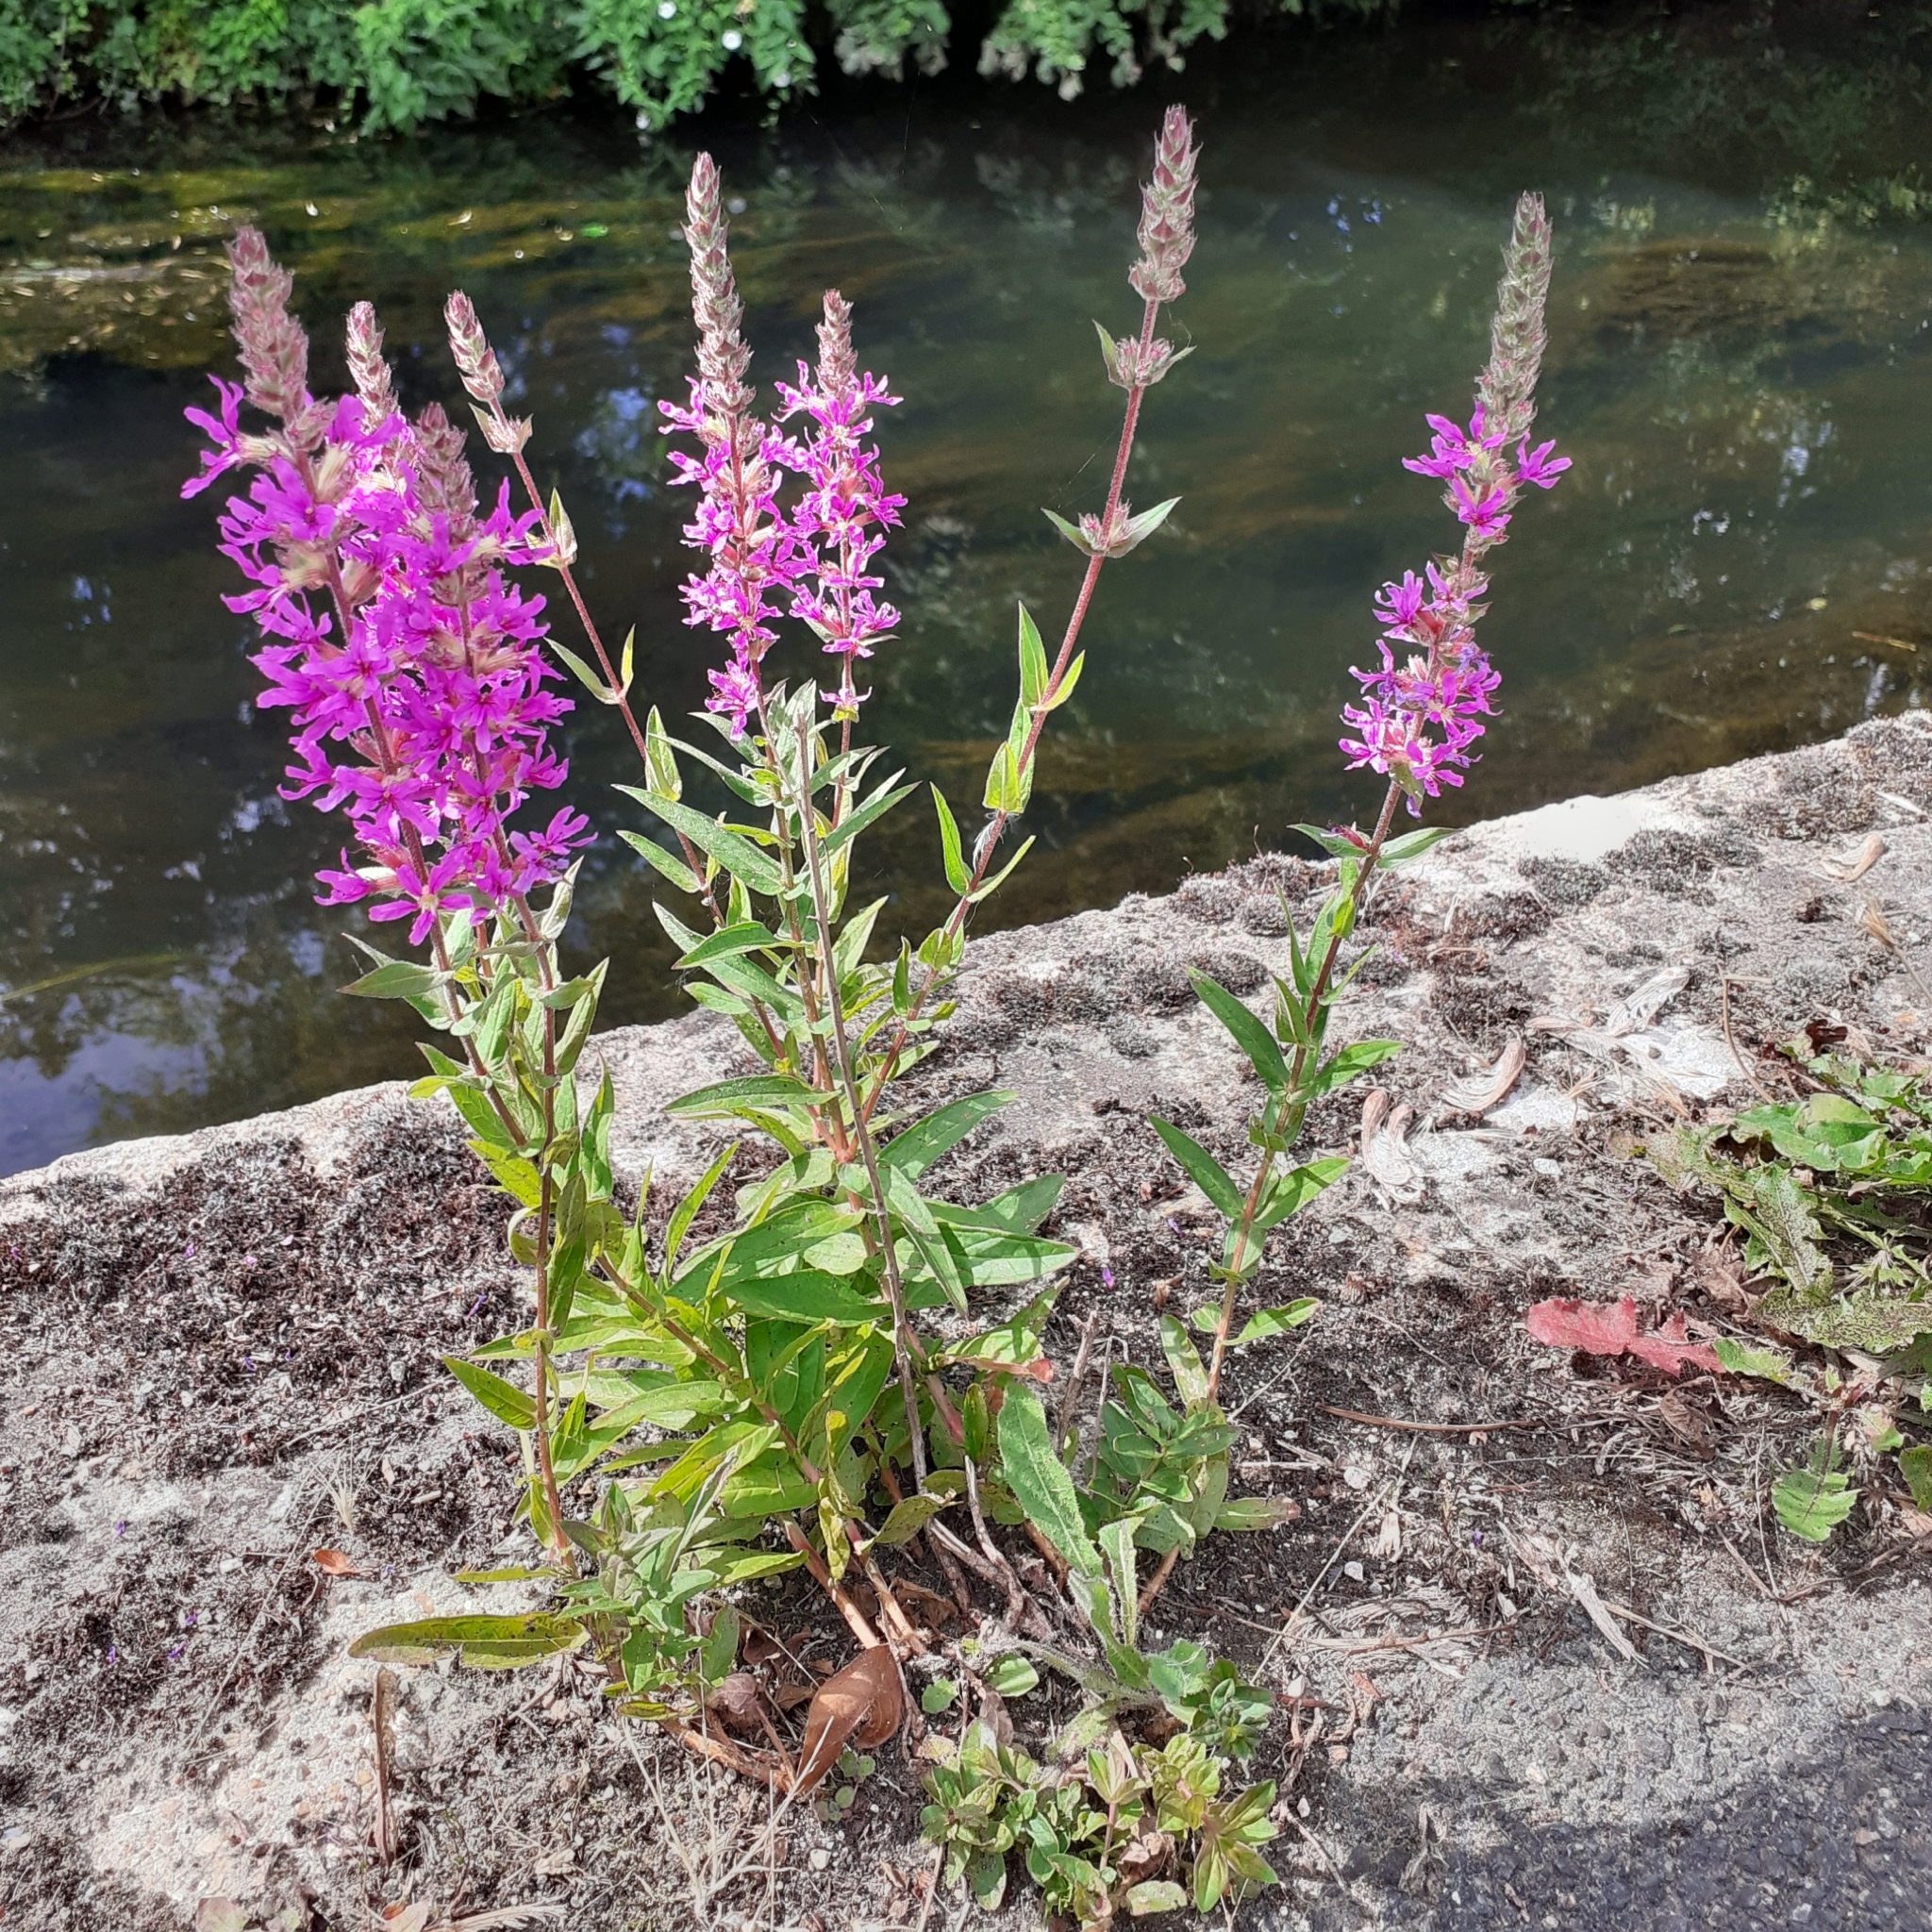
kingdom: Plantae
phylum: Tracheophyta
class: Magnoliopsida
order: Myrtales
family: Lythraceae
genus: Lythrum
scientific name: Lythrum salicaria
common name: Purple loosestrife
